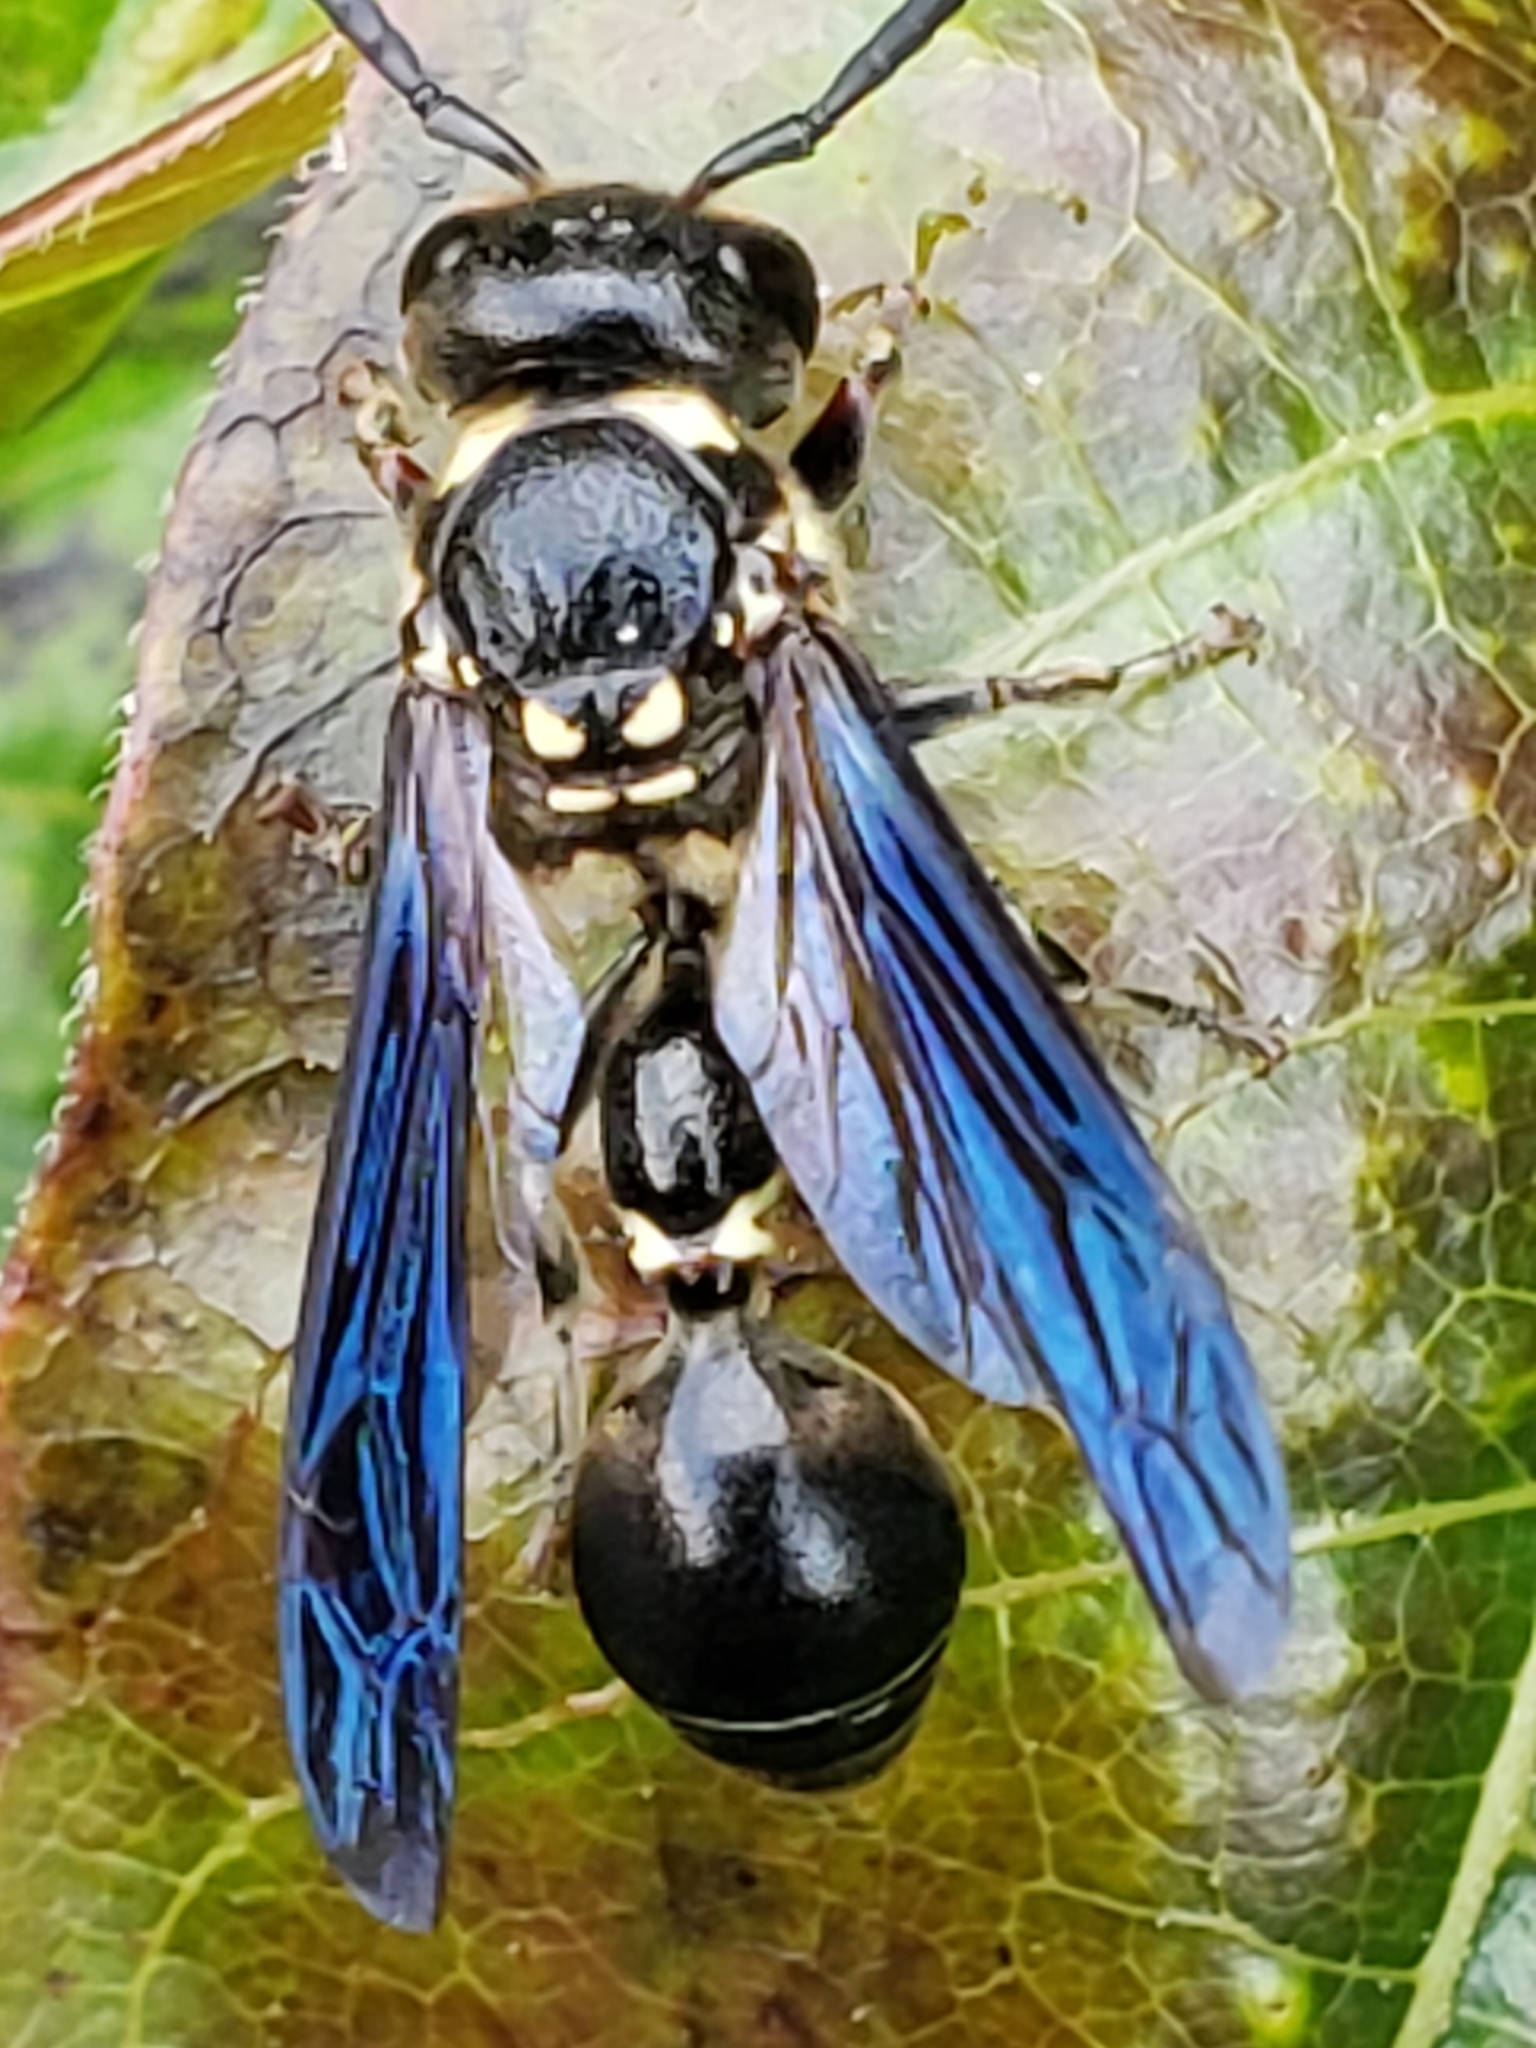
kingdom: Animalia
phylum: Arthropoda
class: Insecta
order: Hymenoptera
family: Eumenidae
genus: Zethus
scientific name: Zethus spinipes
